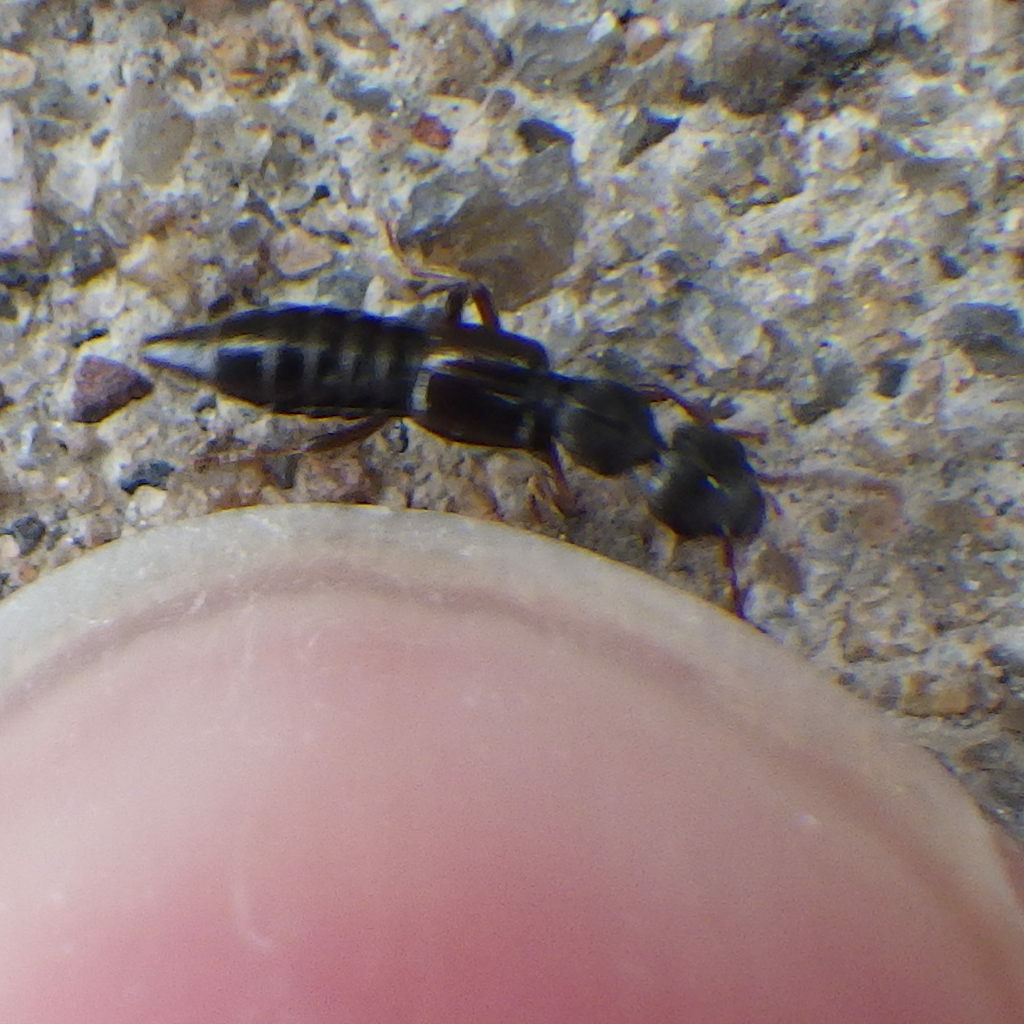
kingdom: Animalia
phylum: Arthropoda
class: Insecta
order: Coleoptera
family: Staphylinidae
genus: Rugilus
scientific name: Rugilus rufipes
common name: Staph beetle
